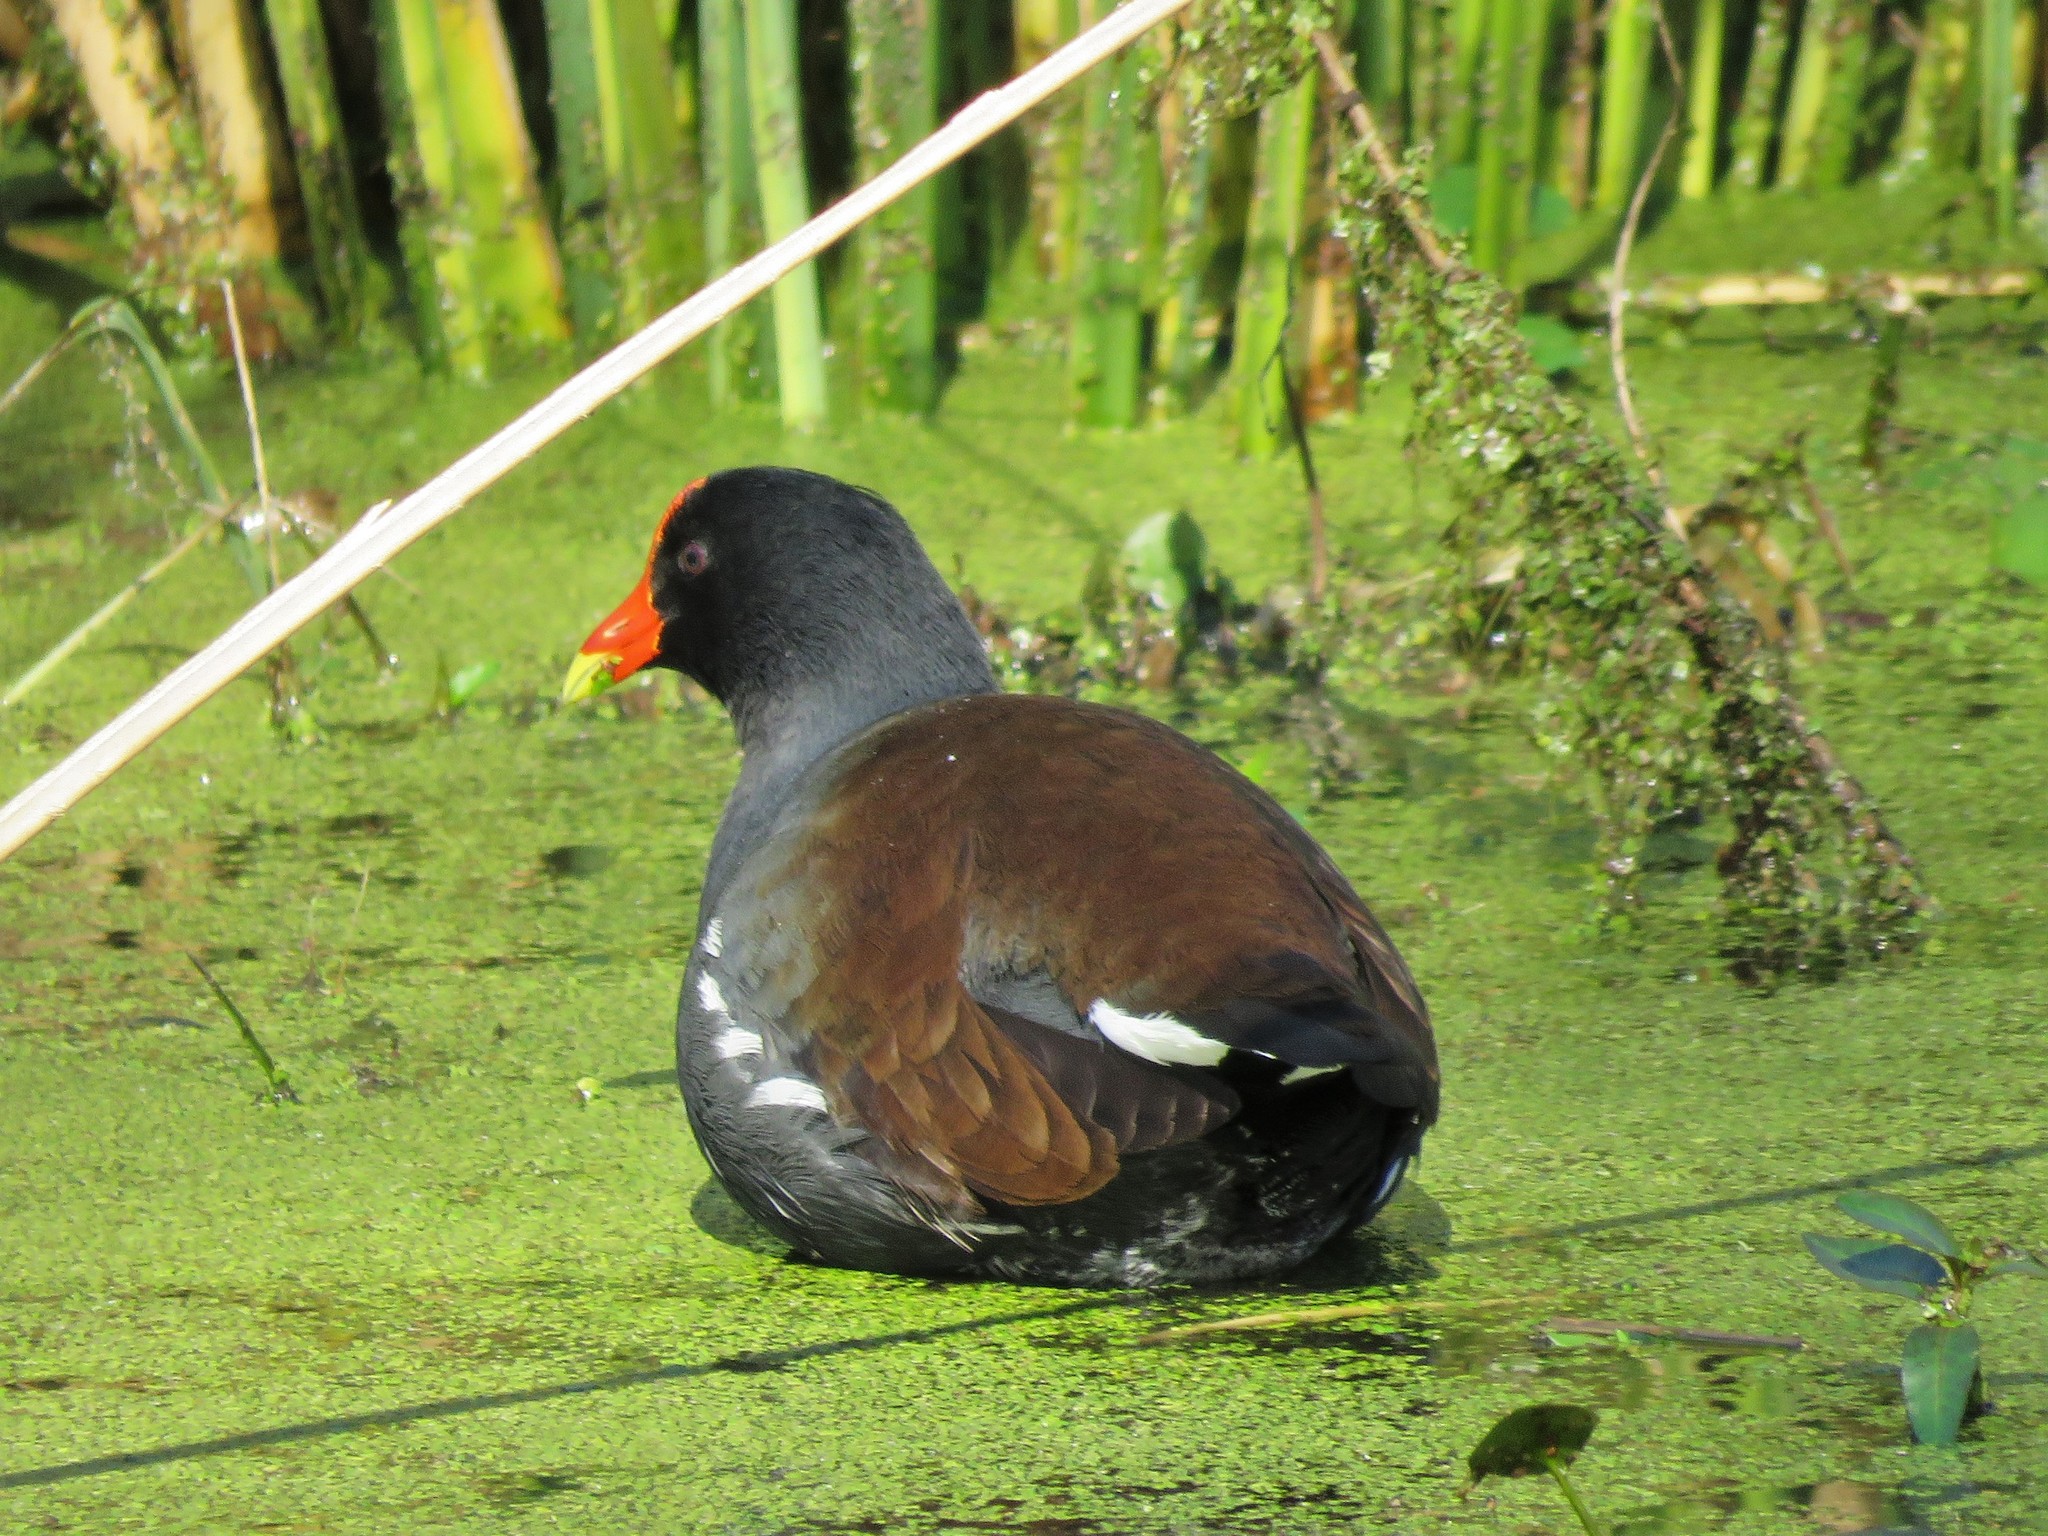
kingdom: Animalia
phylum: Chordata
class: Aves
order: Gruiformes
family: Rallidae
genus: Gallinula
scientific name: Gallinula chloropus
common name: Common moorhen
